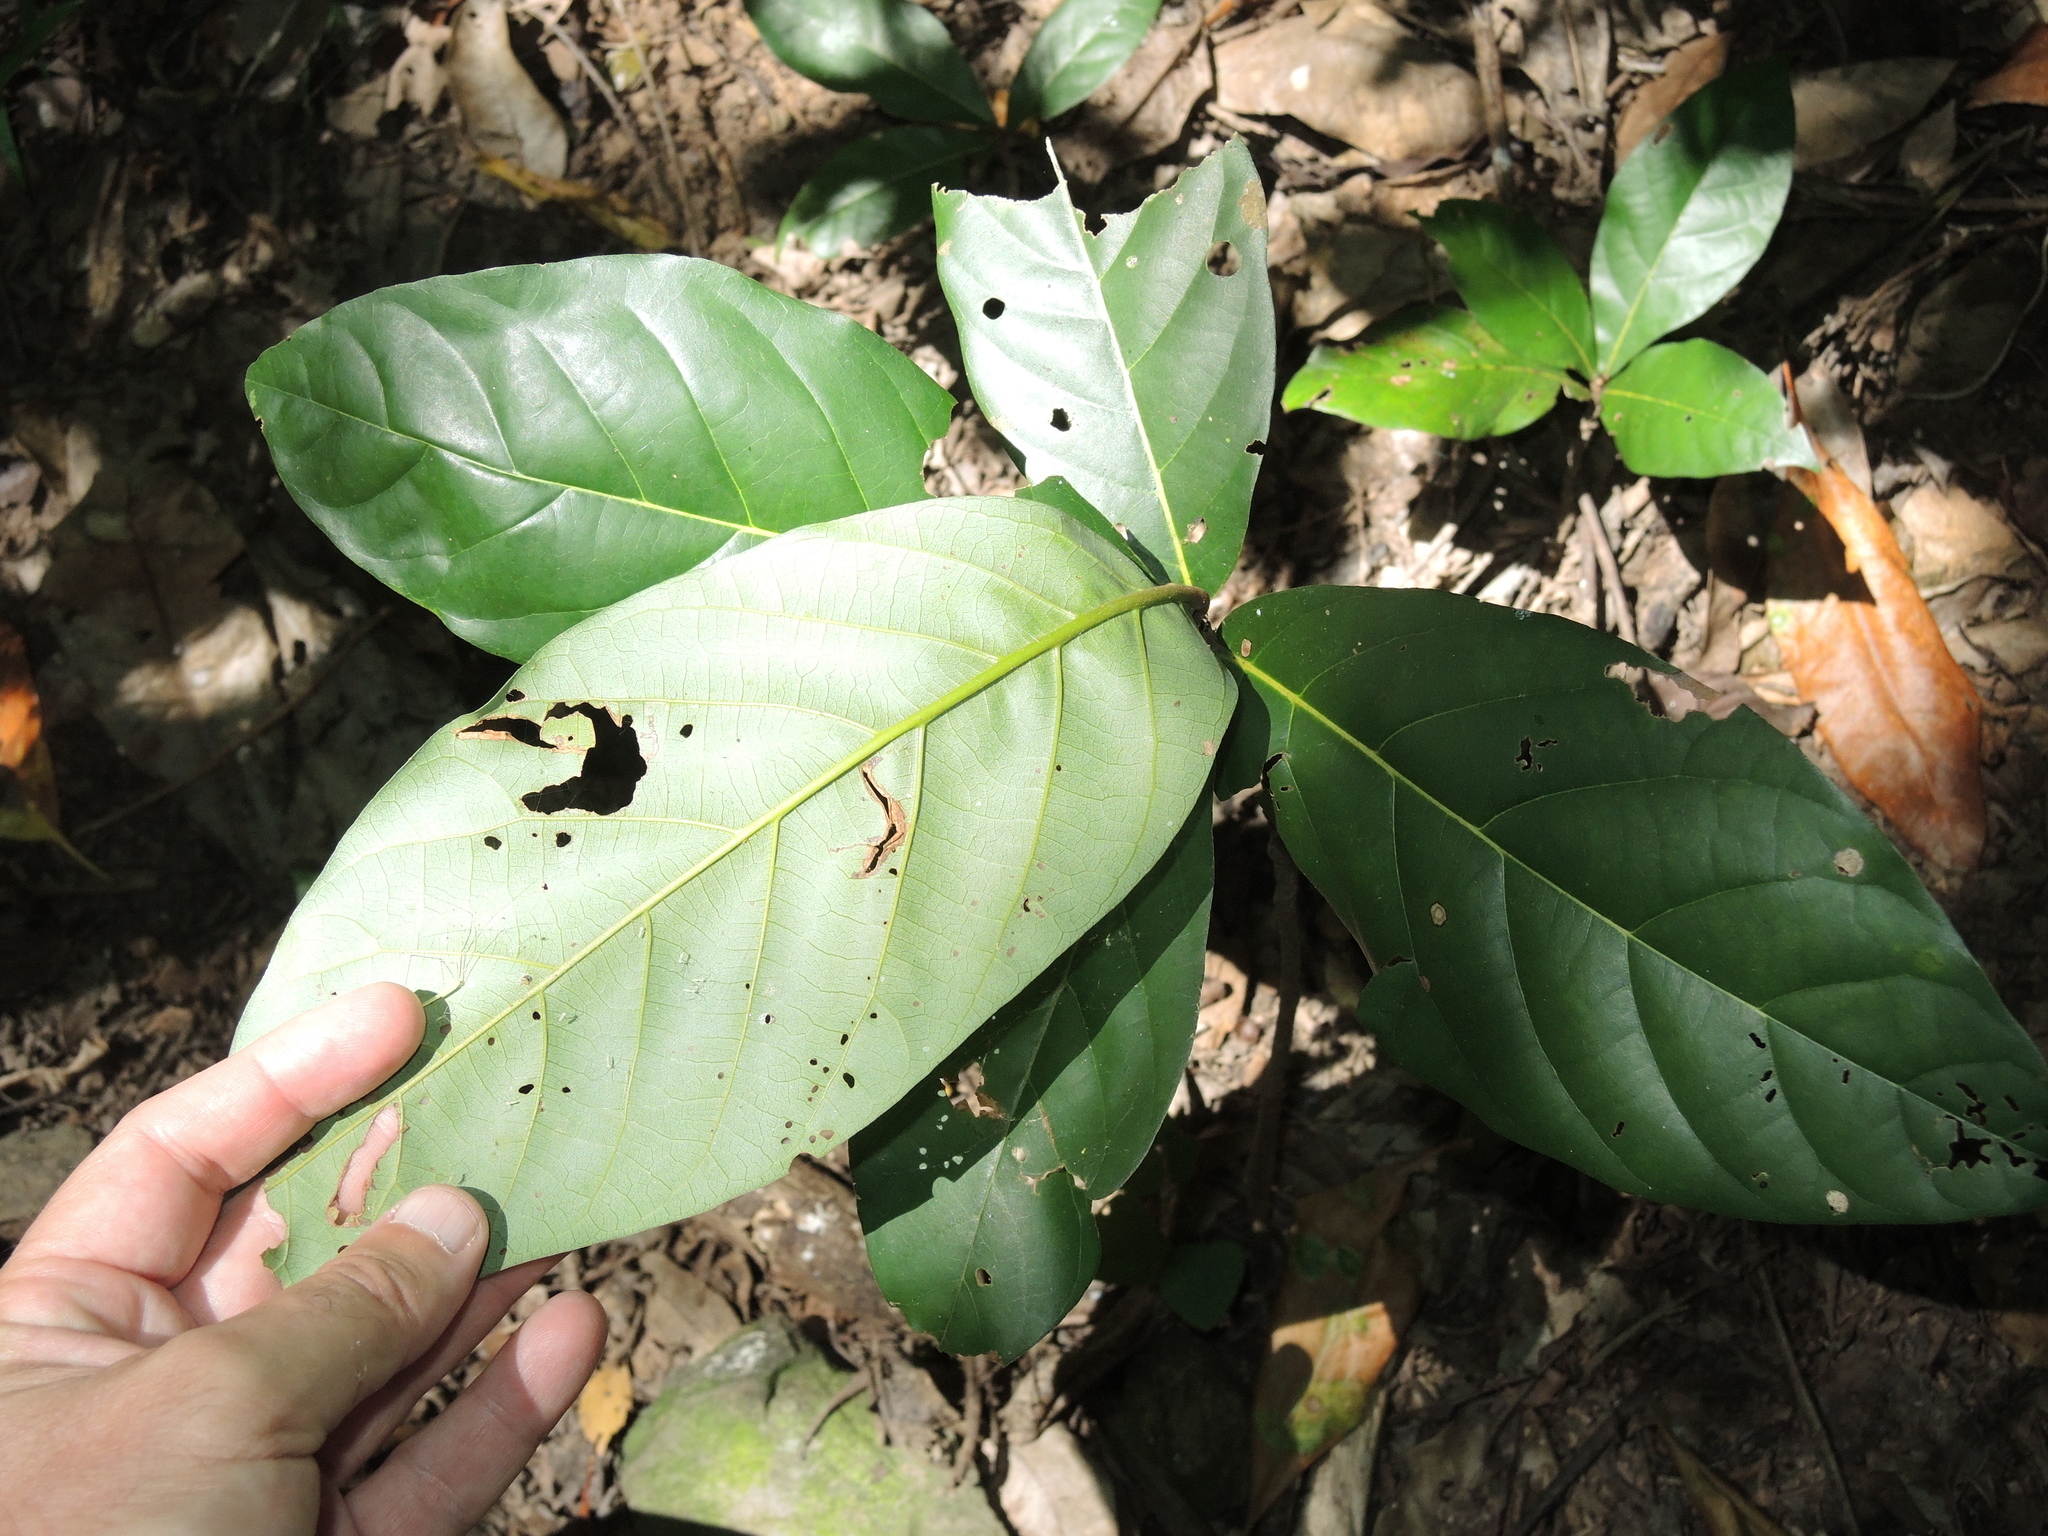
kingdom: Plantae
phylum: Tracheophyta
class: Magnoliopsida
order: Laurales
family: Lauraceae
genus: Cryptocarya
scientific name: Cryptocarya hypospodia
